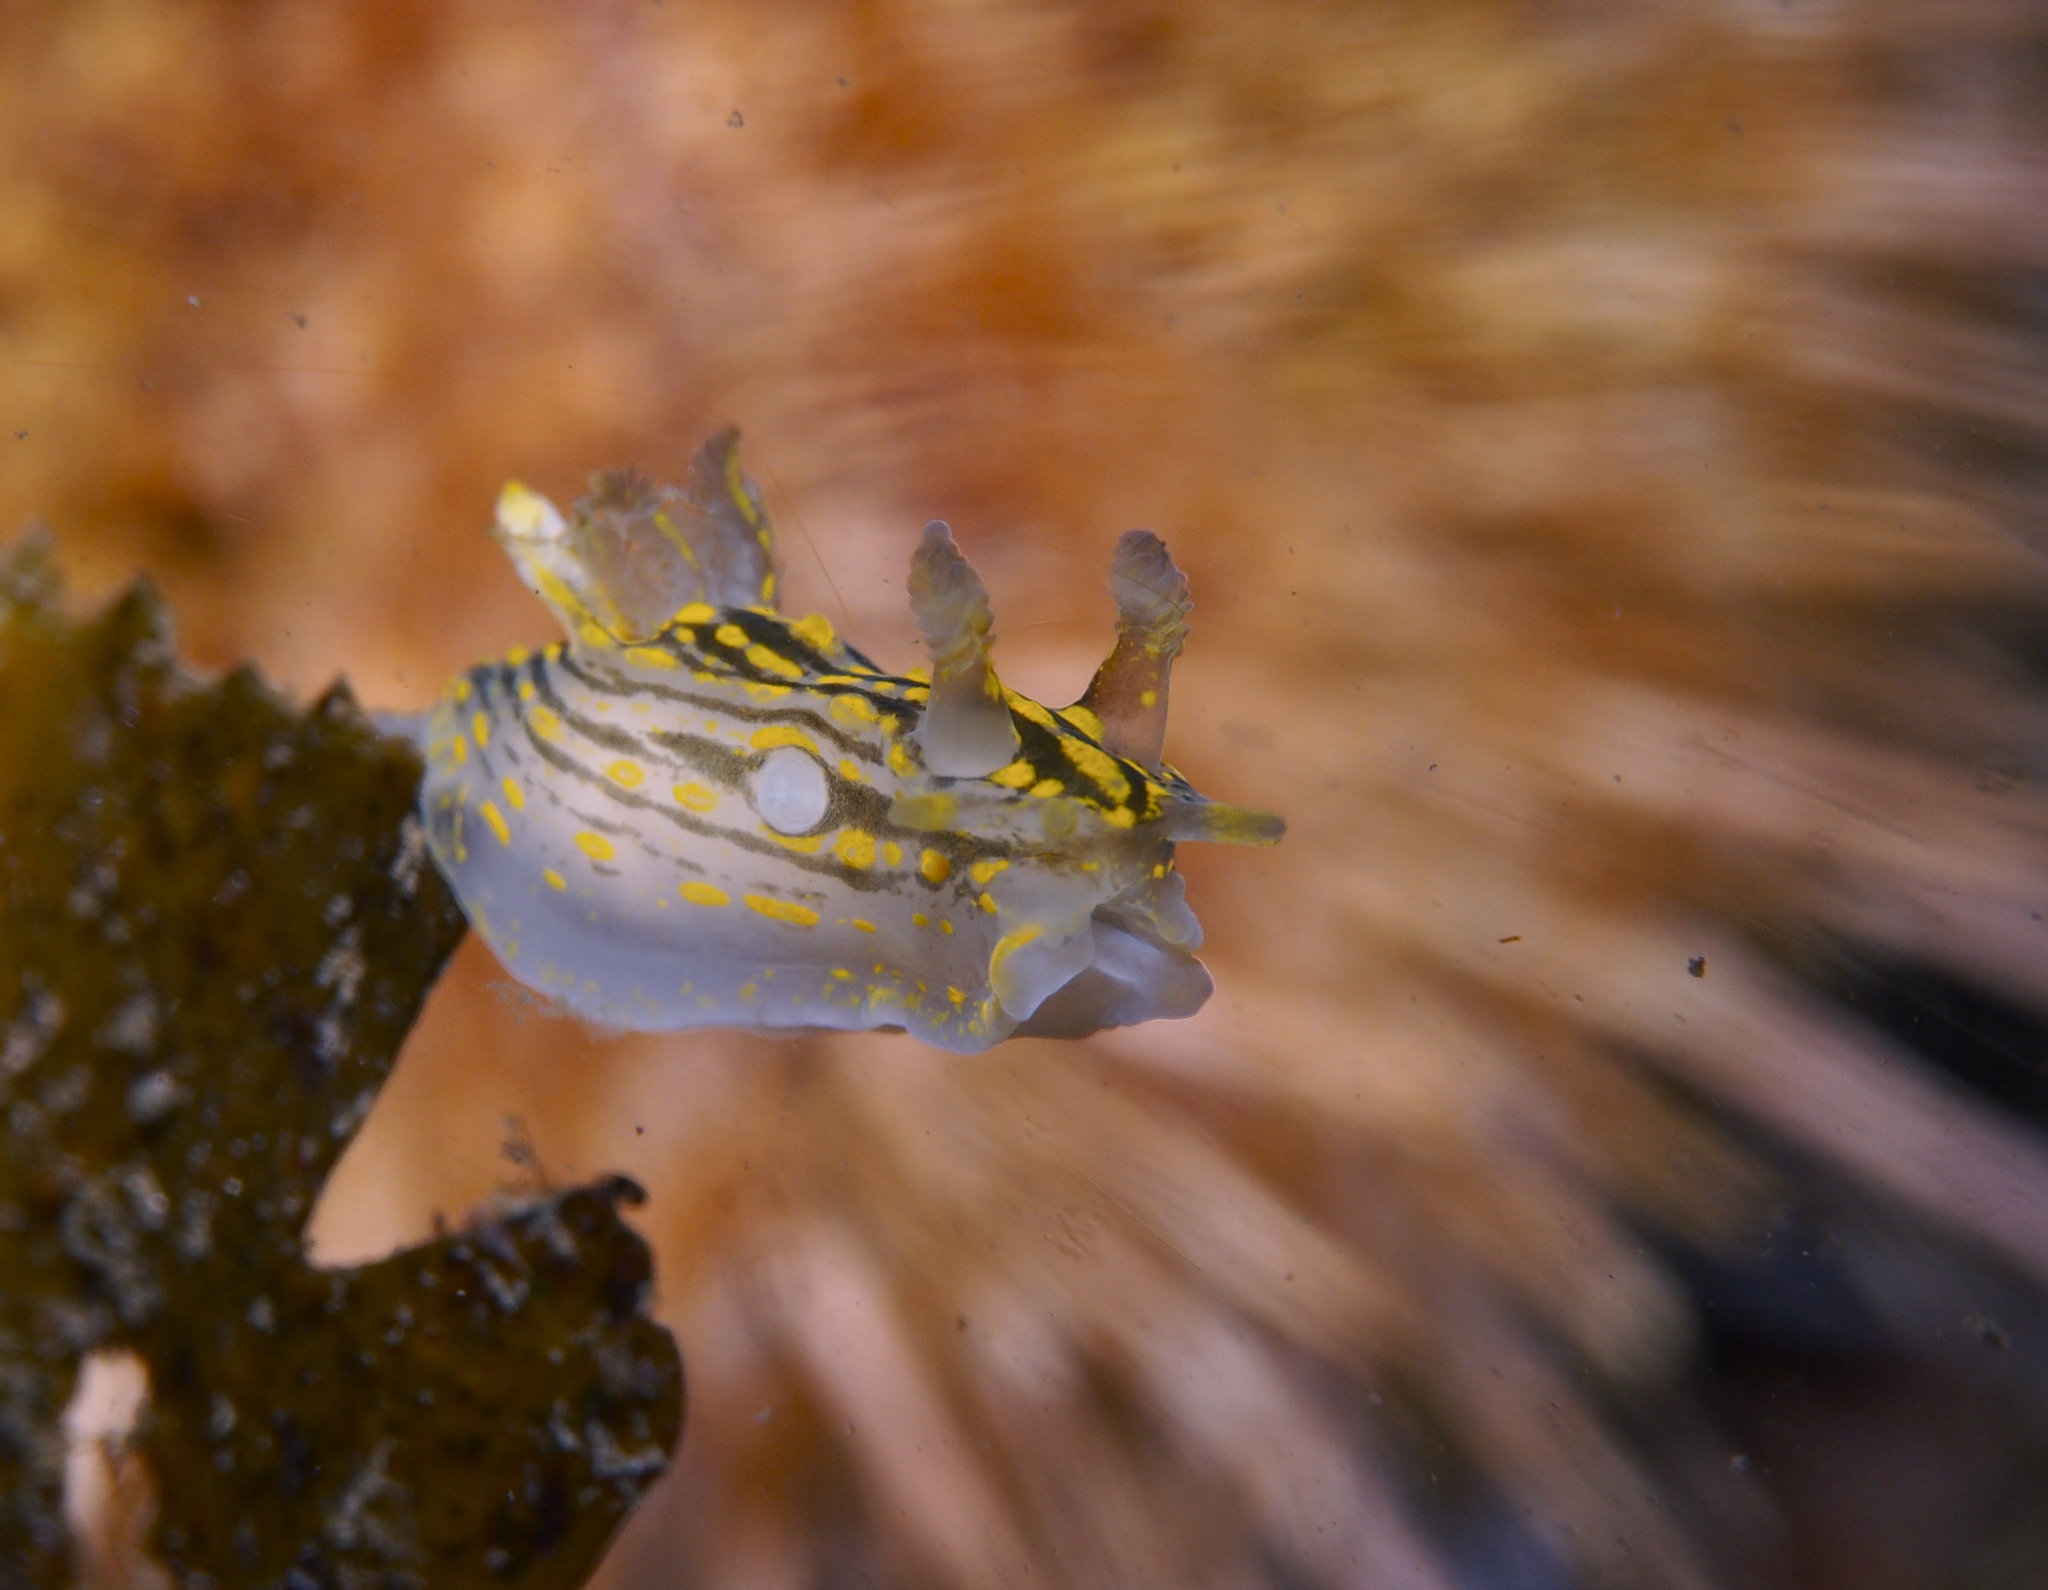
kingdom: Animalia
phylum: Mollusca
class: Gastropoda
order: Nudibranchia
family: Polyceridae
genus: Polycera
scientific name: Polycera quadrilineata
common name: Four-striped polycera
